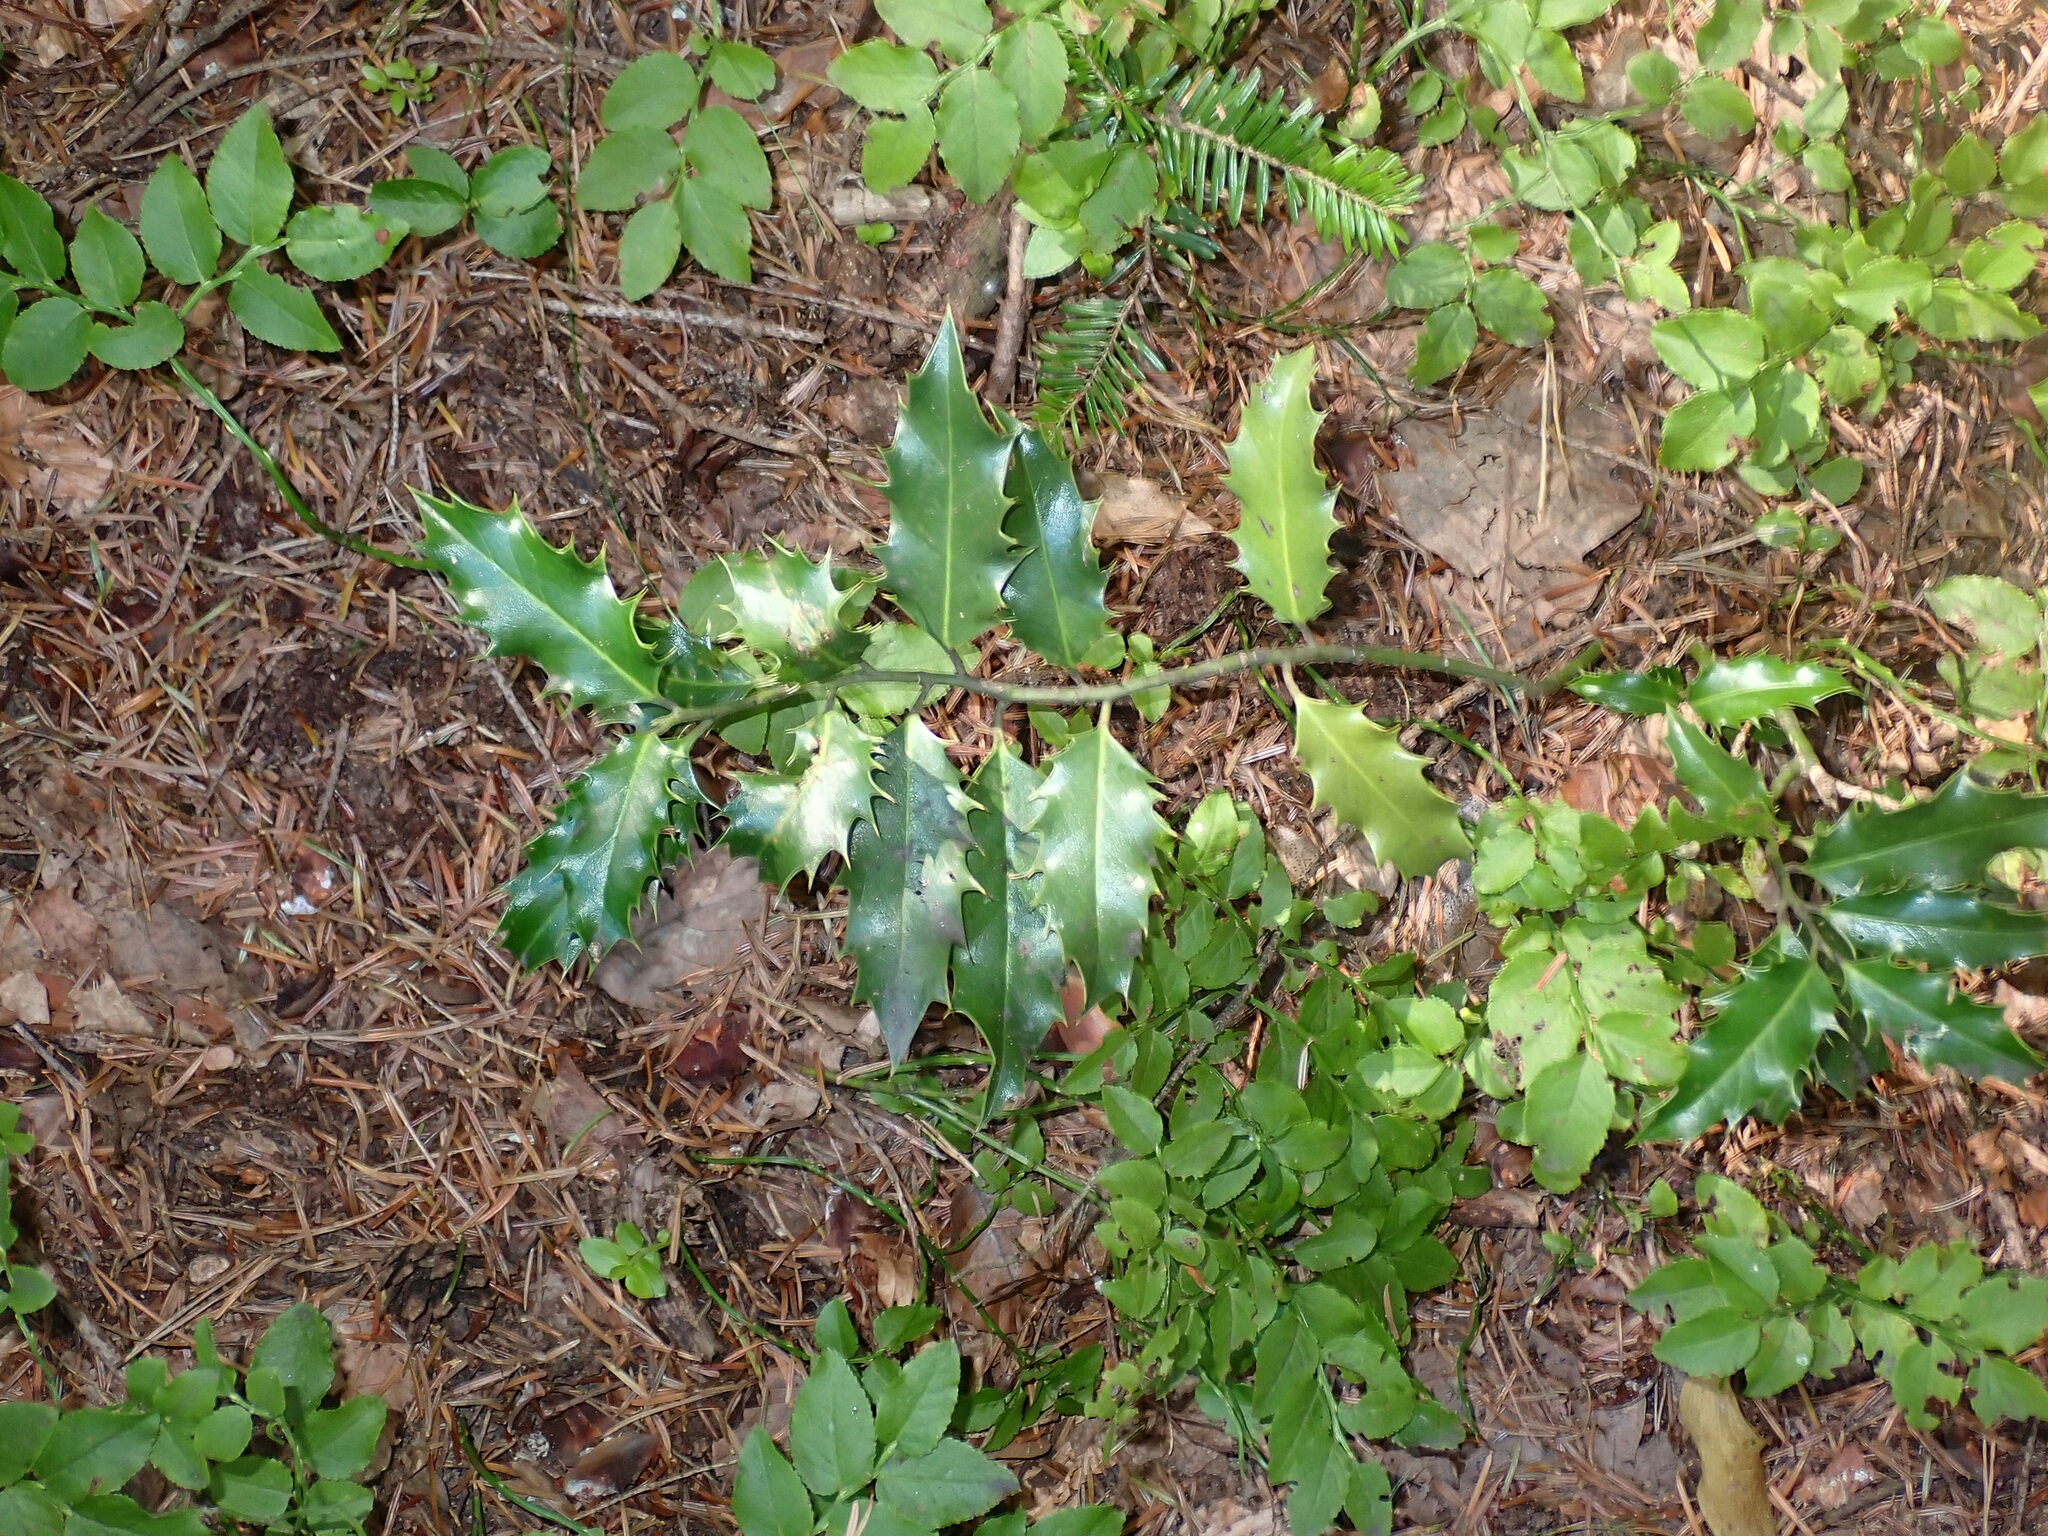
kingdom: Plantae
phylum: Tracheophyta
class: Magnoliopsida
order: Aquifoliales
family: Aquifoliaceae
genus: Ilex
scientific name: Ilex aquifolium
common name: English holly
